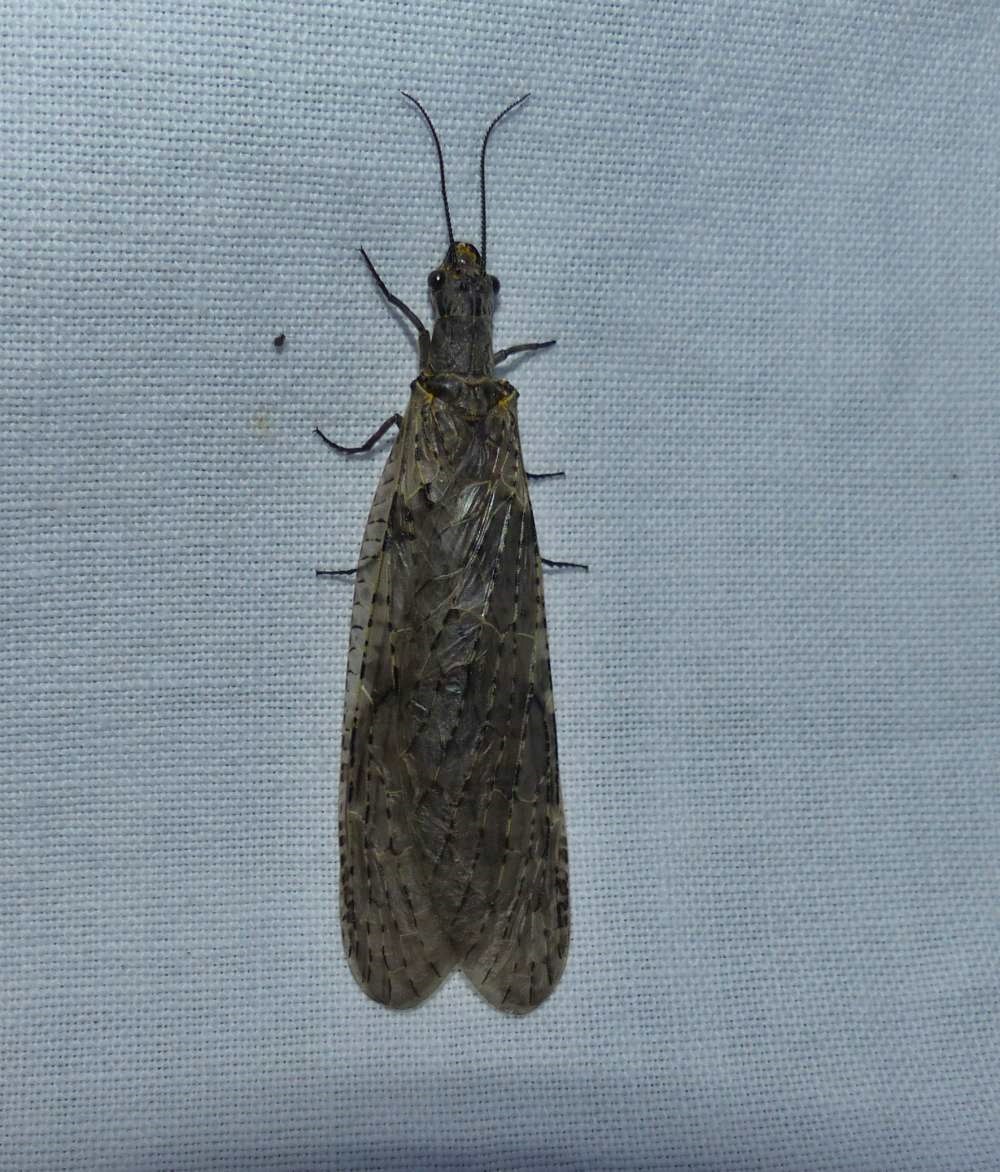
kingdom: Animalia
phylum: Arthropoda
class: Insecta
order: Megaloptera
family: Corydalidae
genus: Chauliodes
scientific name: Chauliodes rastricornis
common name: Spring fishfly
